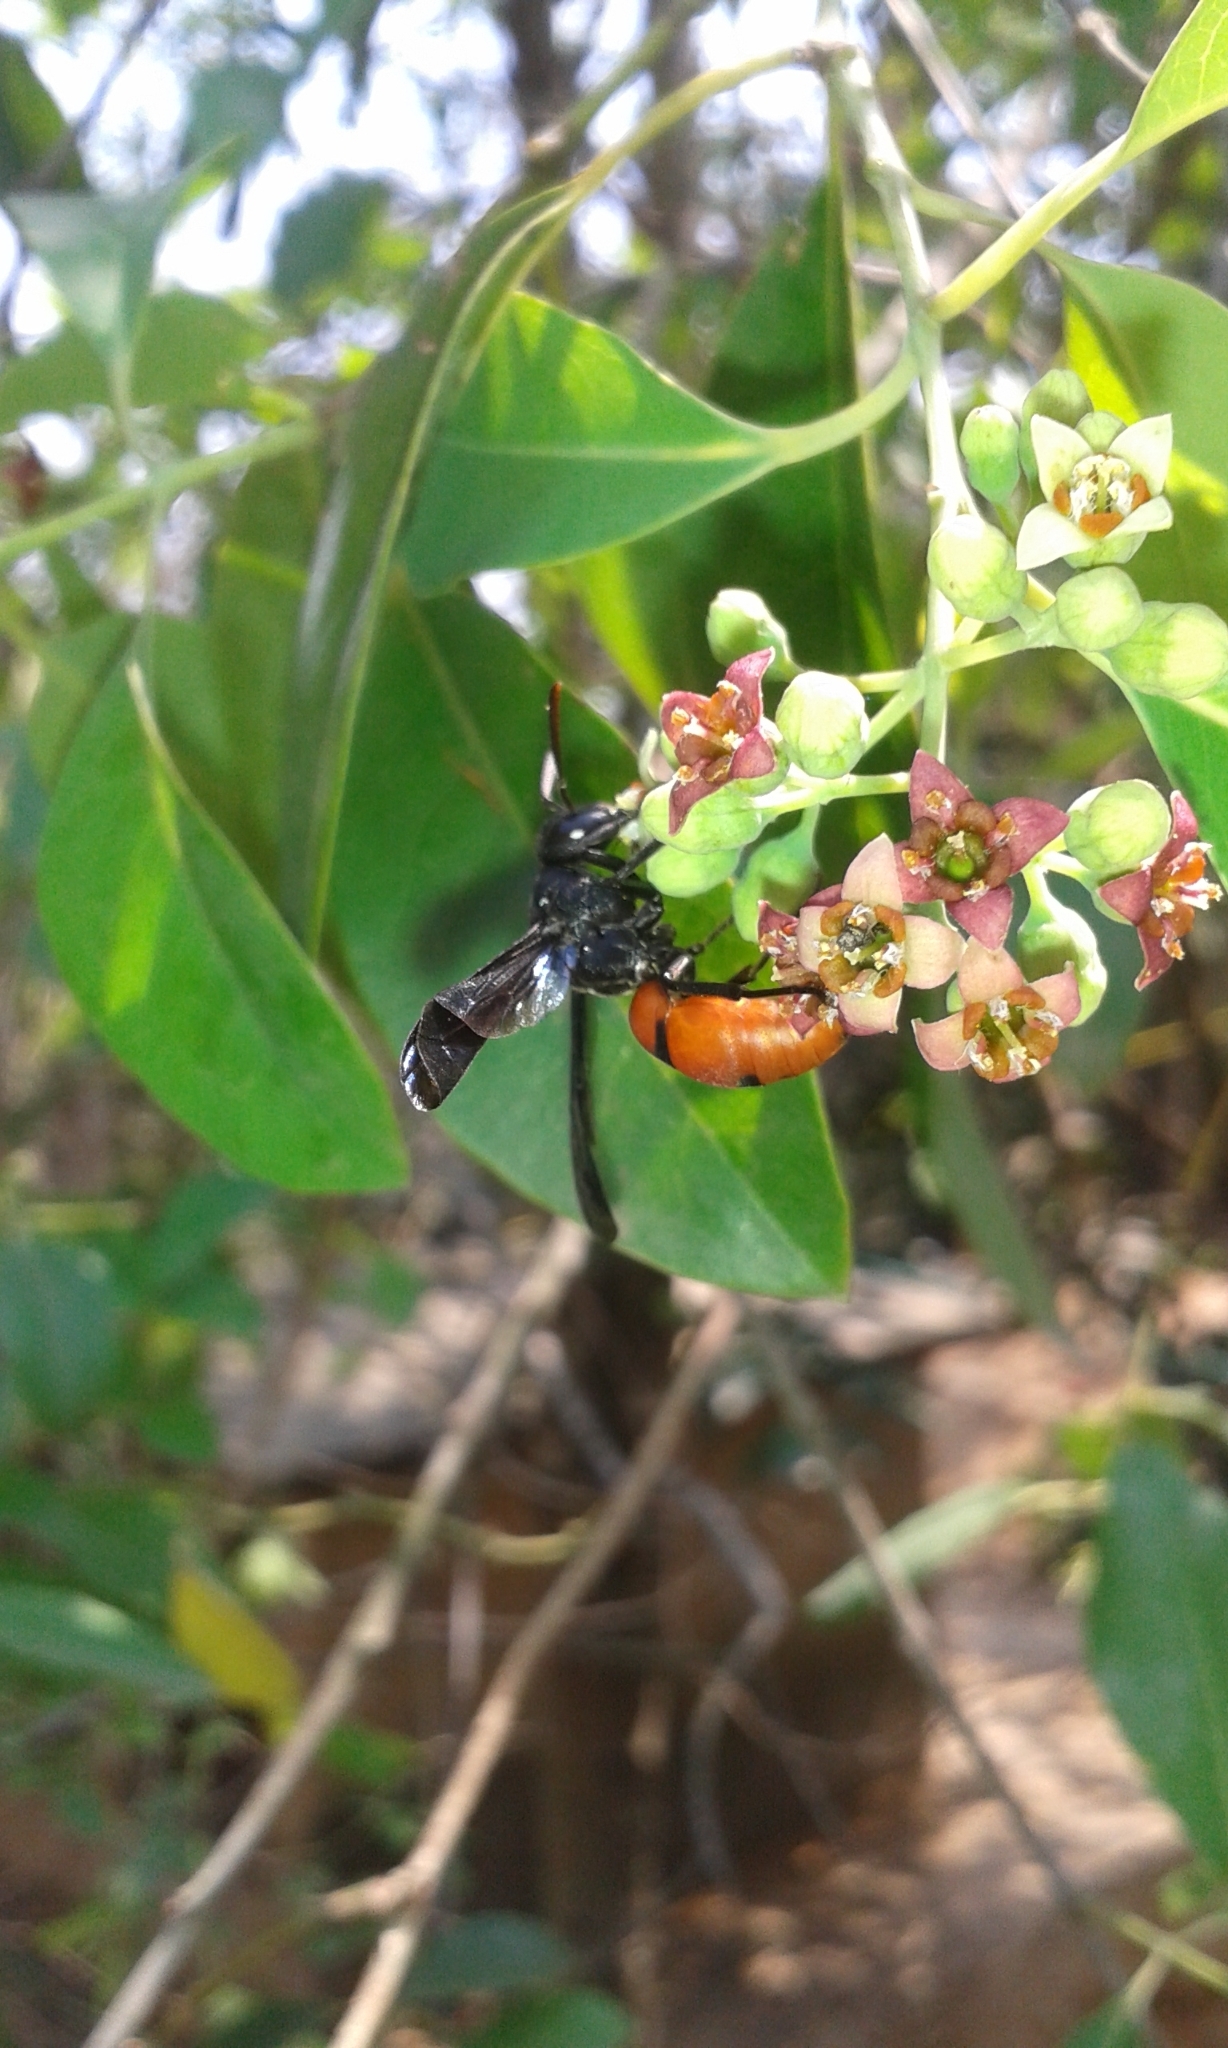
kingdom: Animalia
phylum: Arthropoda
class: Insecta
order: Hymenoptera
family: Eumenidae
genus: Anterhynchium
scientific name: Anterhynchium abdominale
